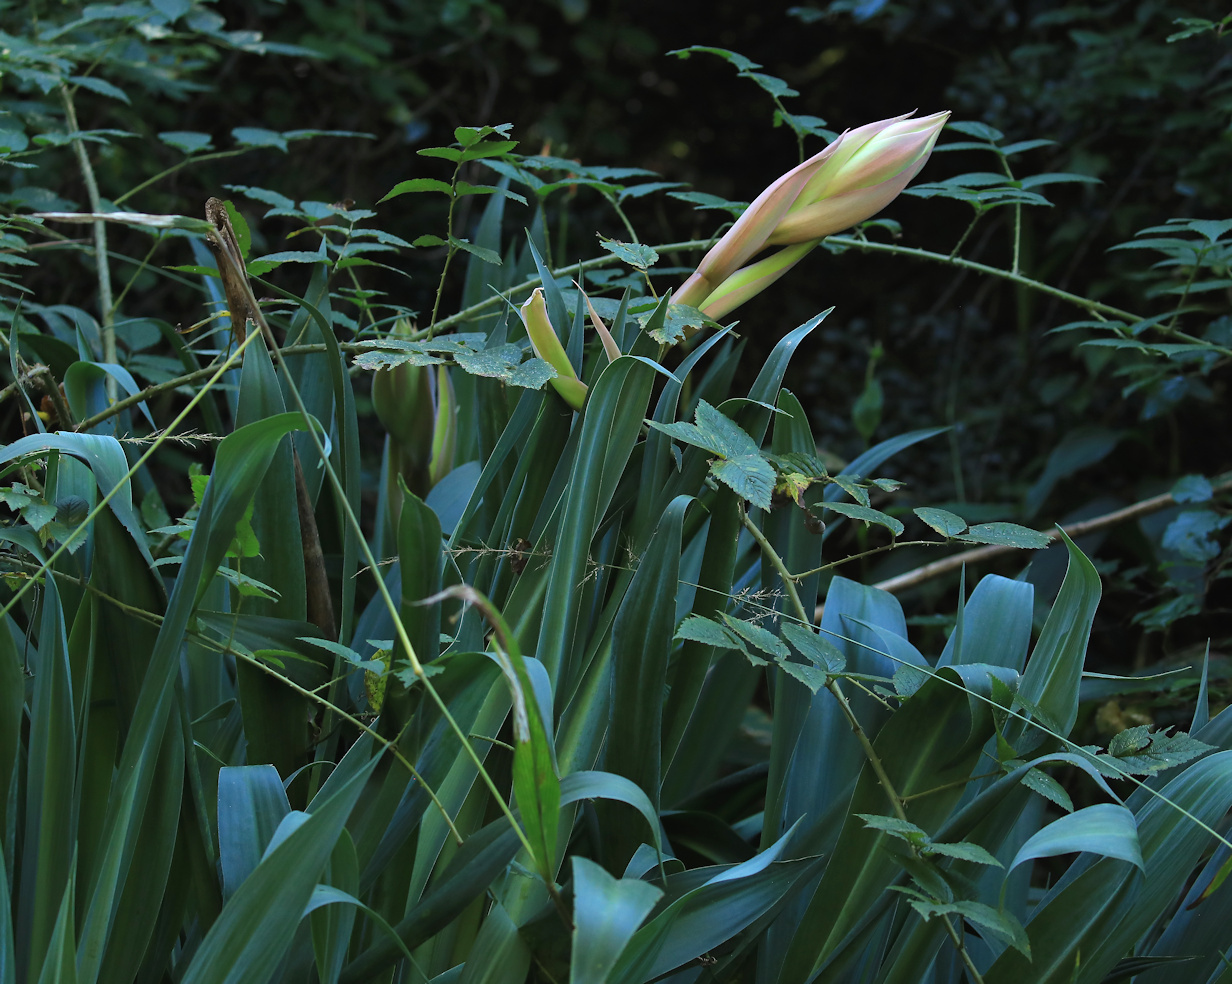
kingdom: Plantae
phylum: Tracheophyta
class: Liliopsida
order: Asparagales
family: Asparagaceae
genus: Beschorneria
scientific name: Beschorneria yuccoides
